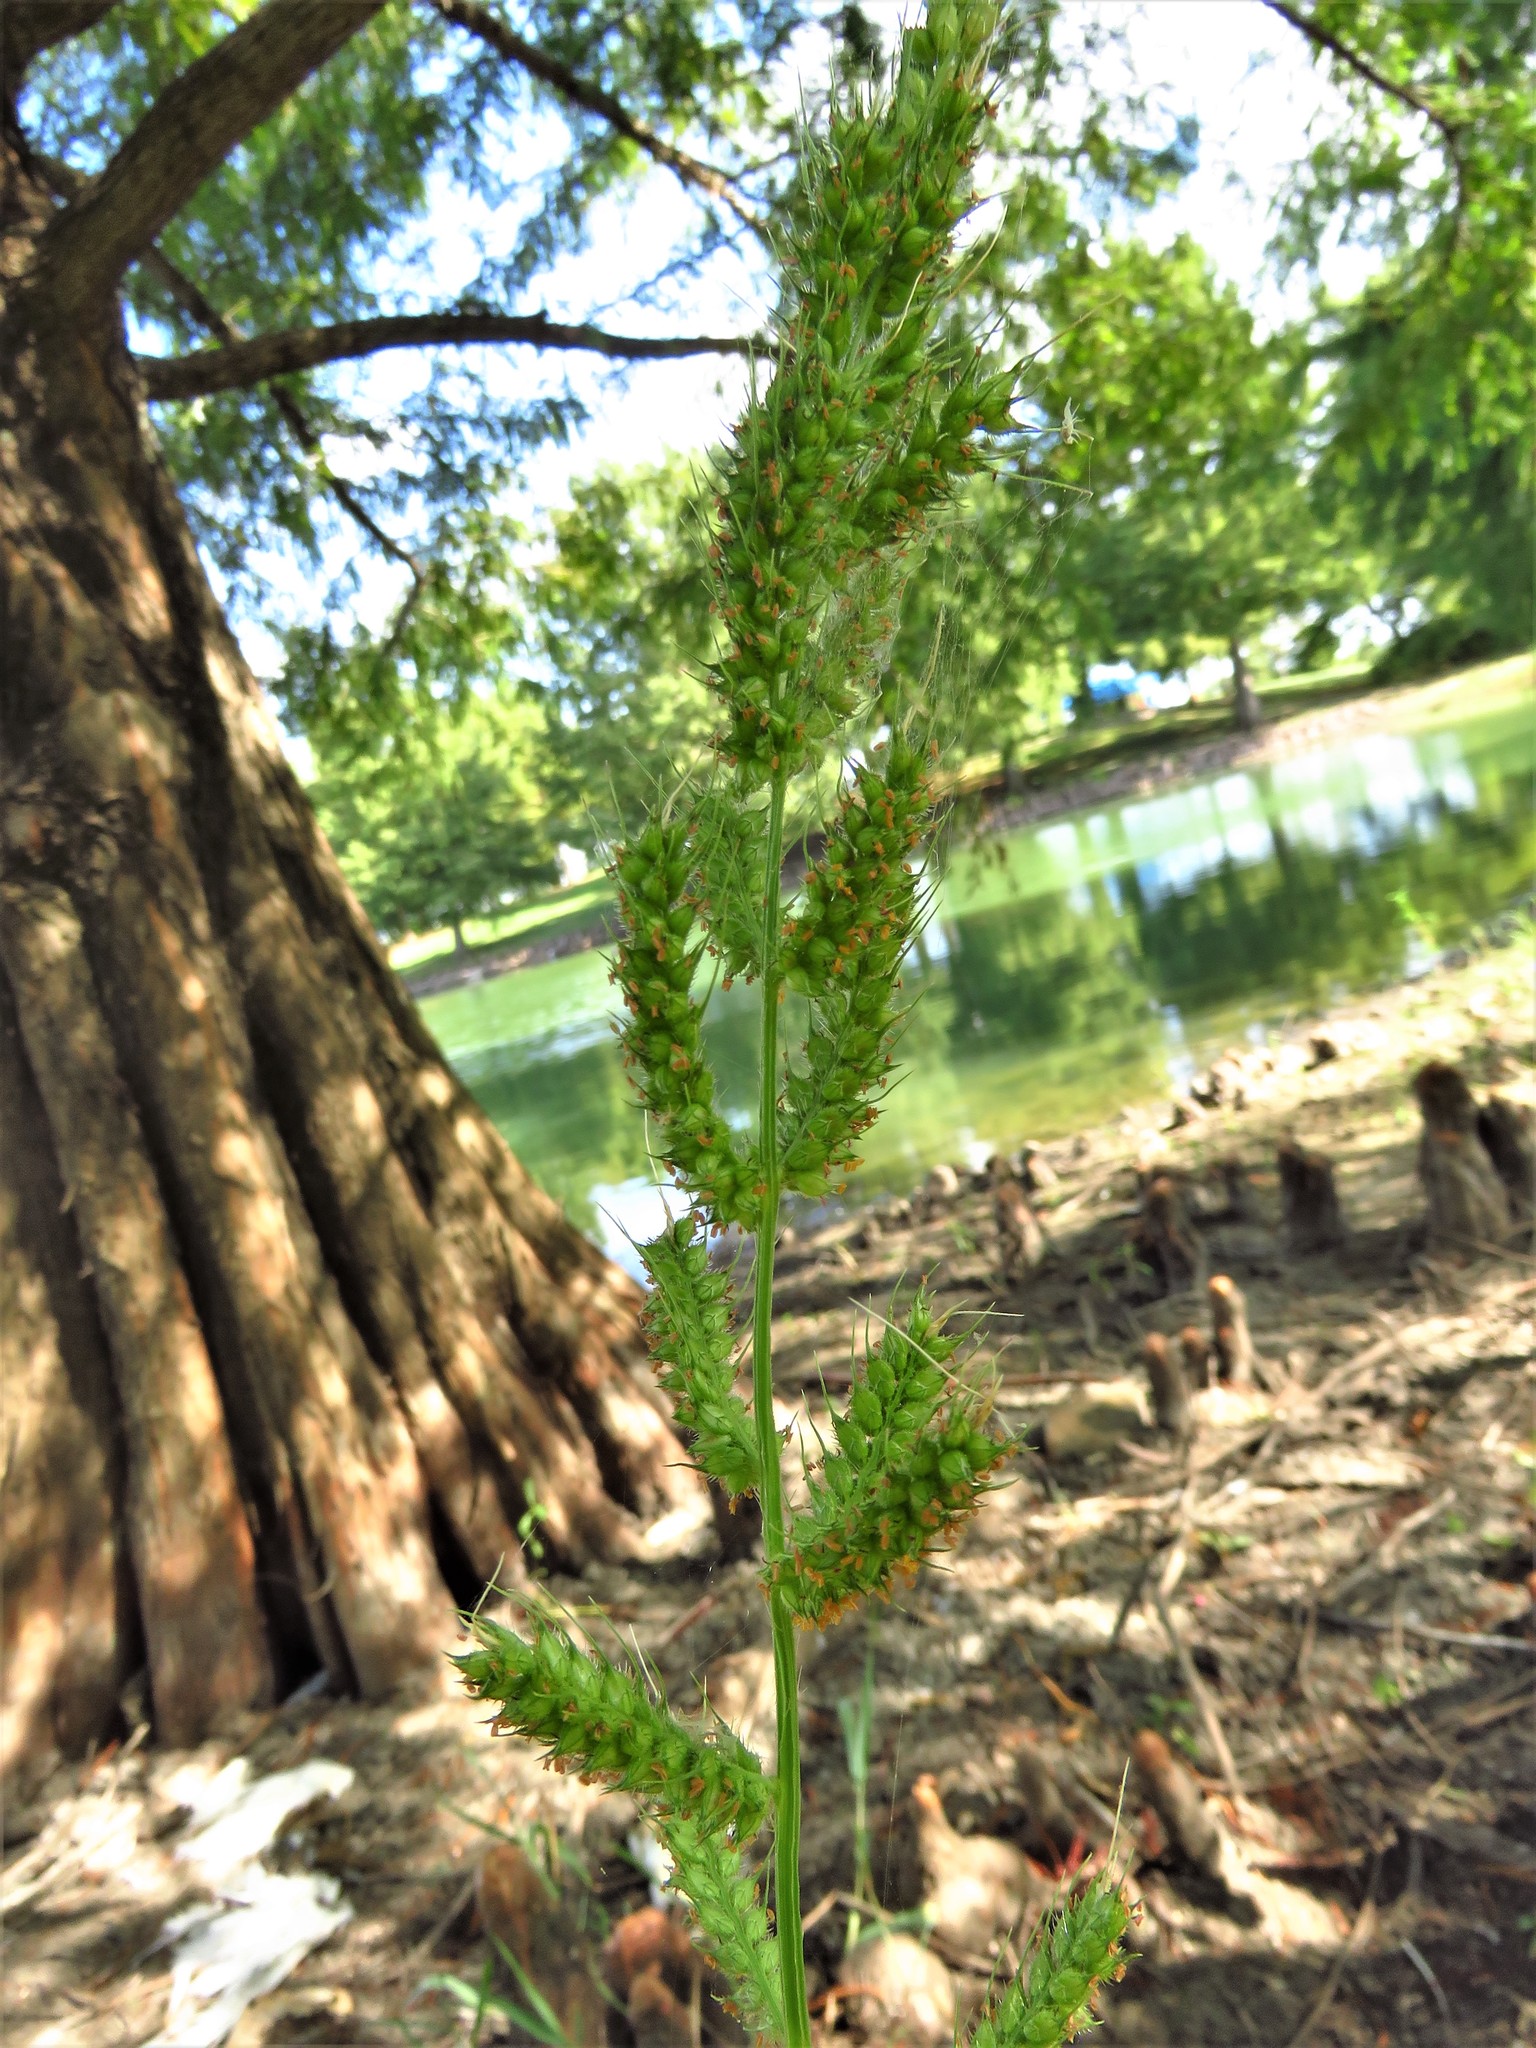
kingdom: Plantae
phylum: Tracheophyta
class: Liliopsida
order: Poales
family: Poaceae
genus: Echinochloa
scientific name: Echinochloa crus-galli
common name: Cockspur
